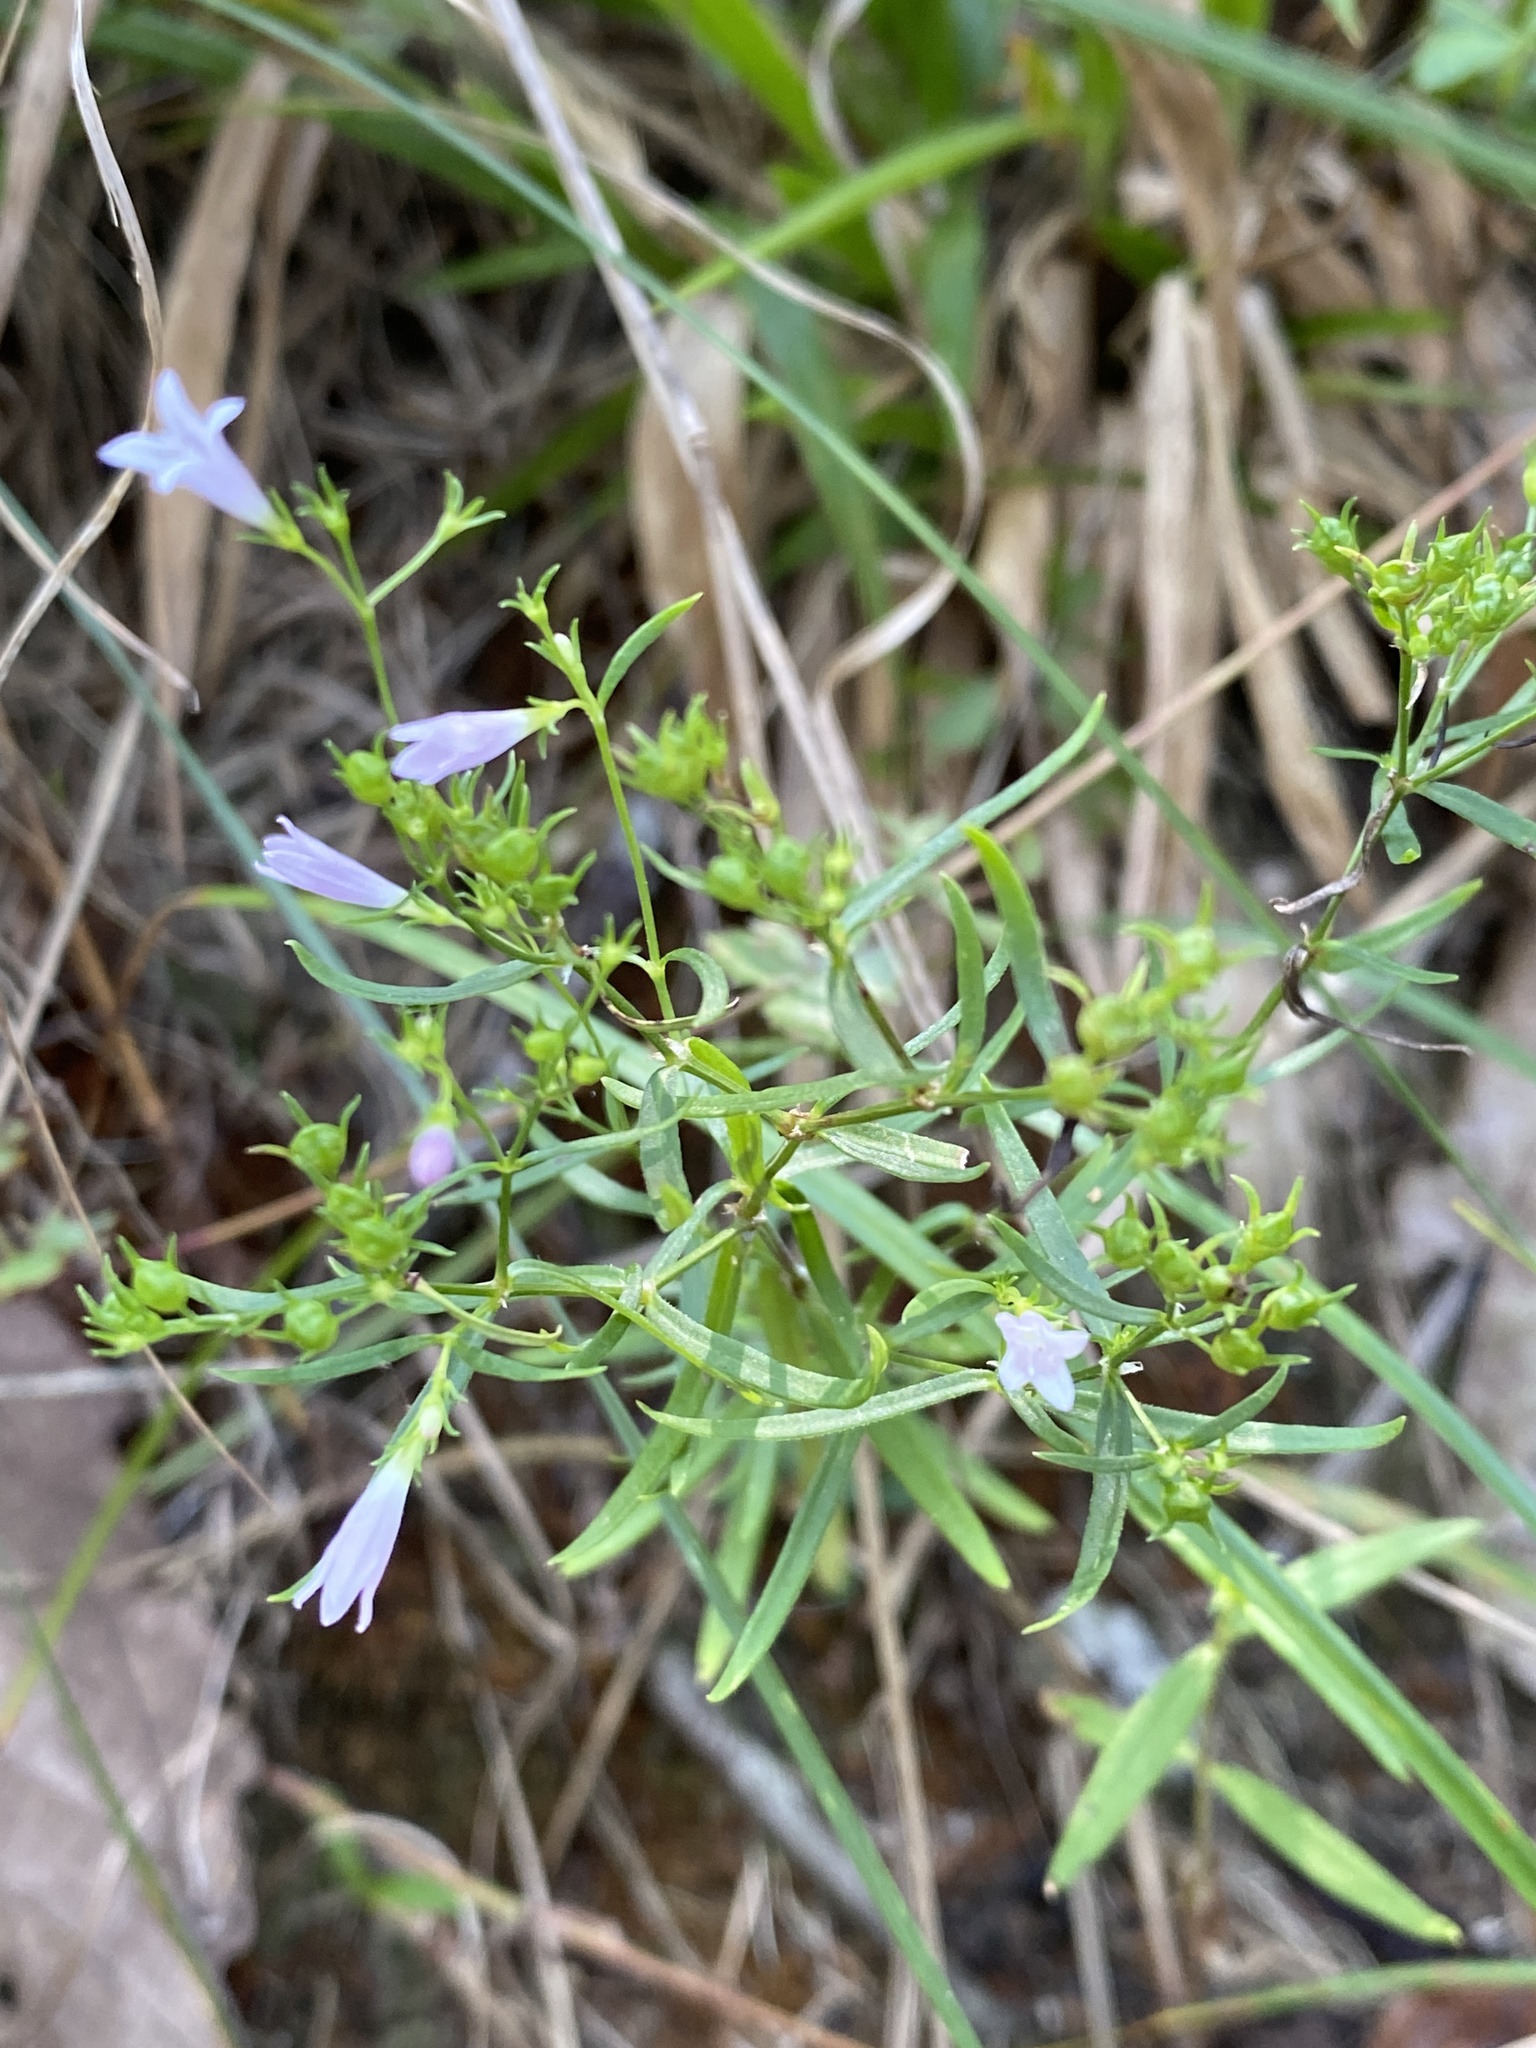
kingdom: Plantae
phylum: Tracheophyta
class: Magnoliopsida
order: Gentianales
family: Rubiaceae
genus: Houstonia
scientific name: Houstonia longifolia
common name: Long-leaved bluets
